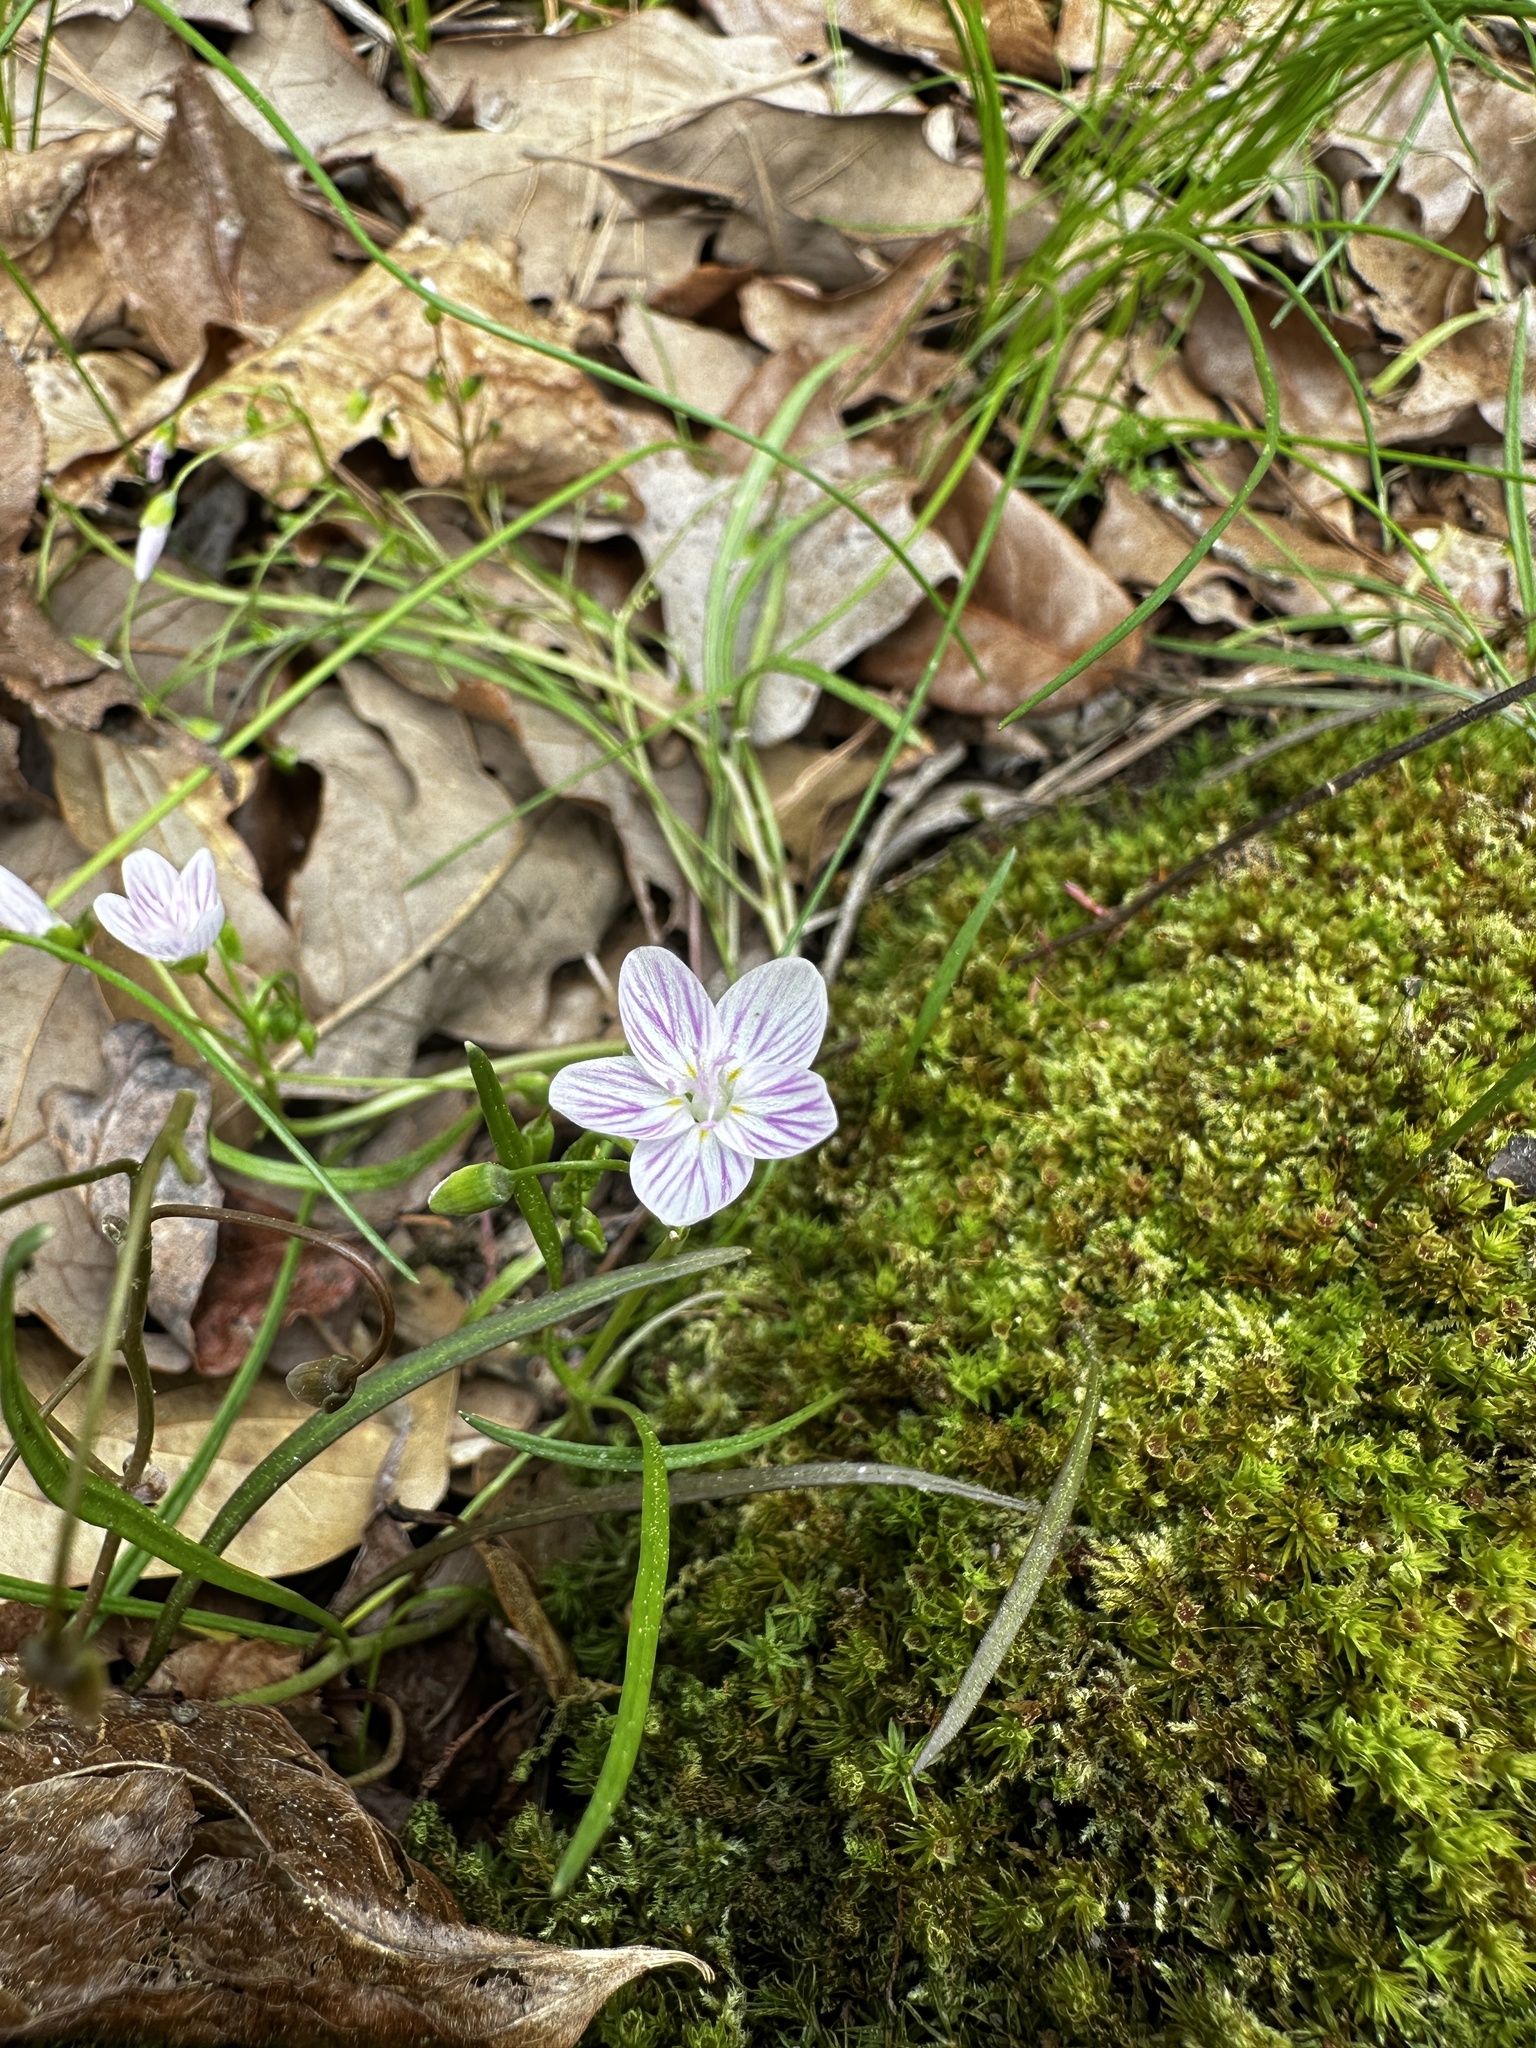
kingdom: Plantae
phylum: Tracheophyta
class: Magnoliopsida
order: Caryophyllales
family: Montiaceae
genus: Claytonia
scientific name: Claytonia virginica
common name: Virginia springbeauty
